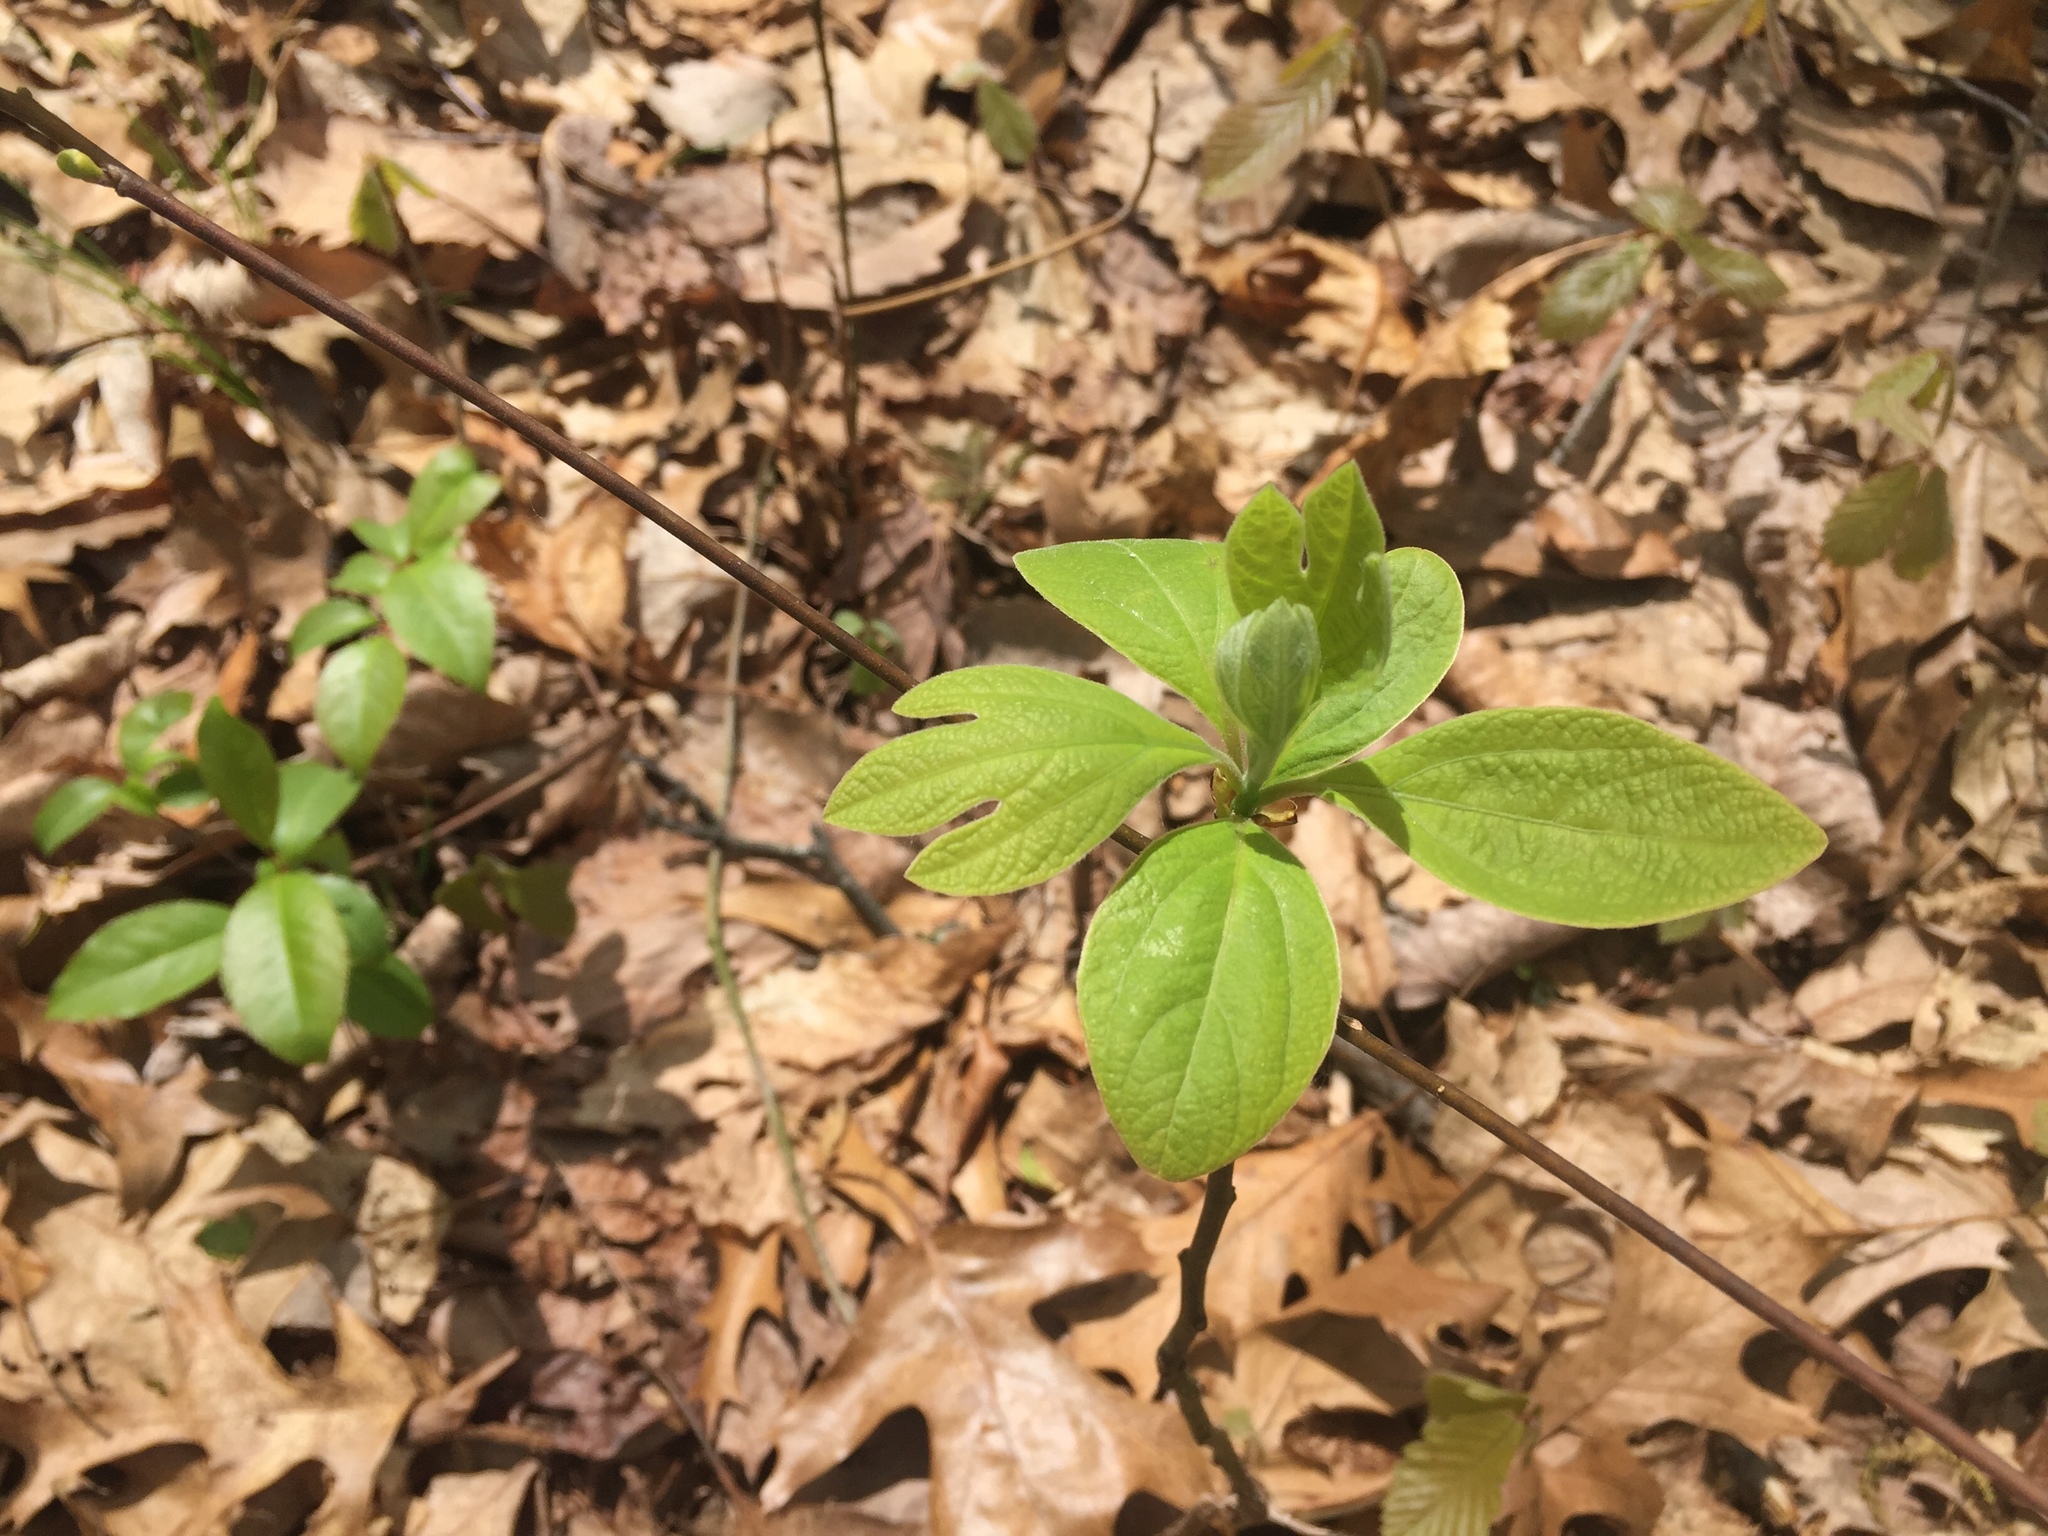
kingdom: Plantae
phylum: Tracheophyta
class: Magnoliopsida
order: Laurales
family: Lauraceae
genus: Sassafras
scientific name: Sassafras albidum
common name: Sassafras
